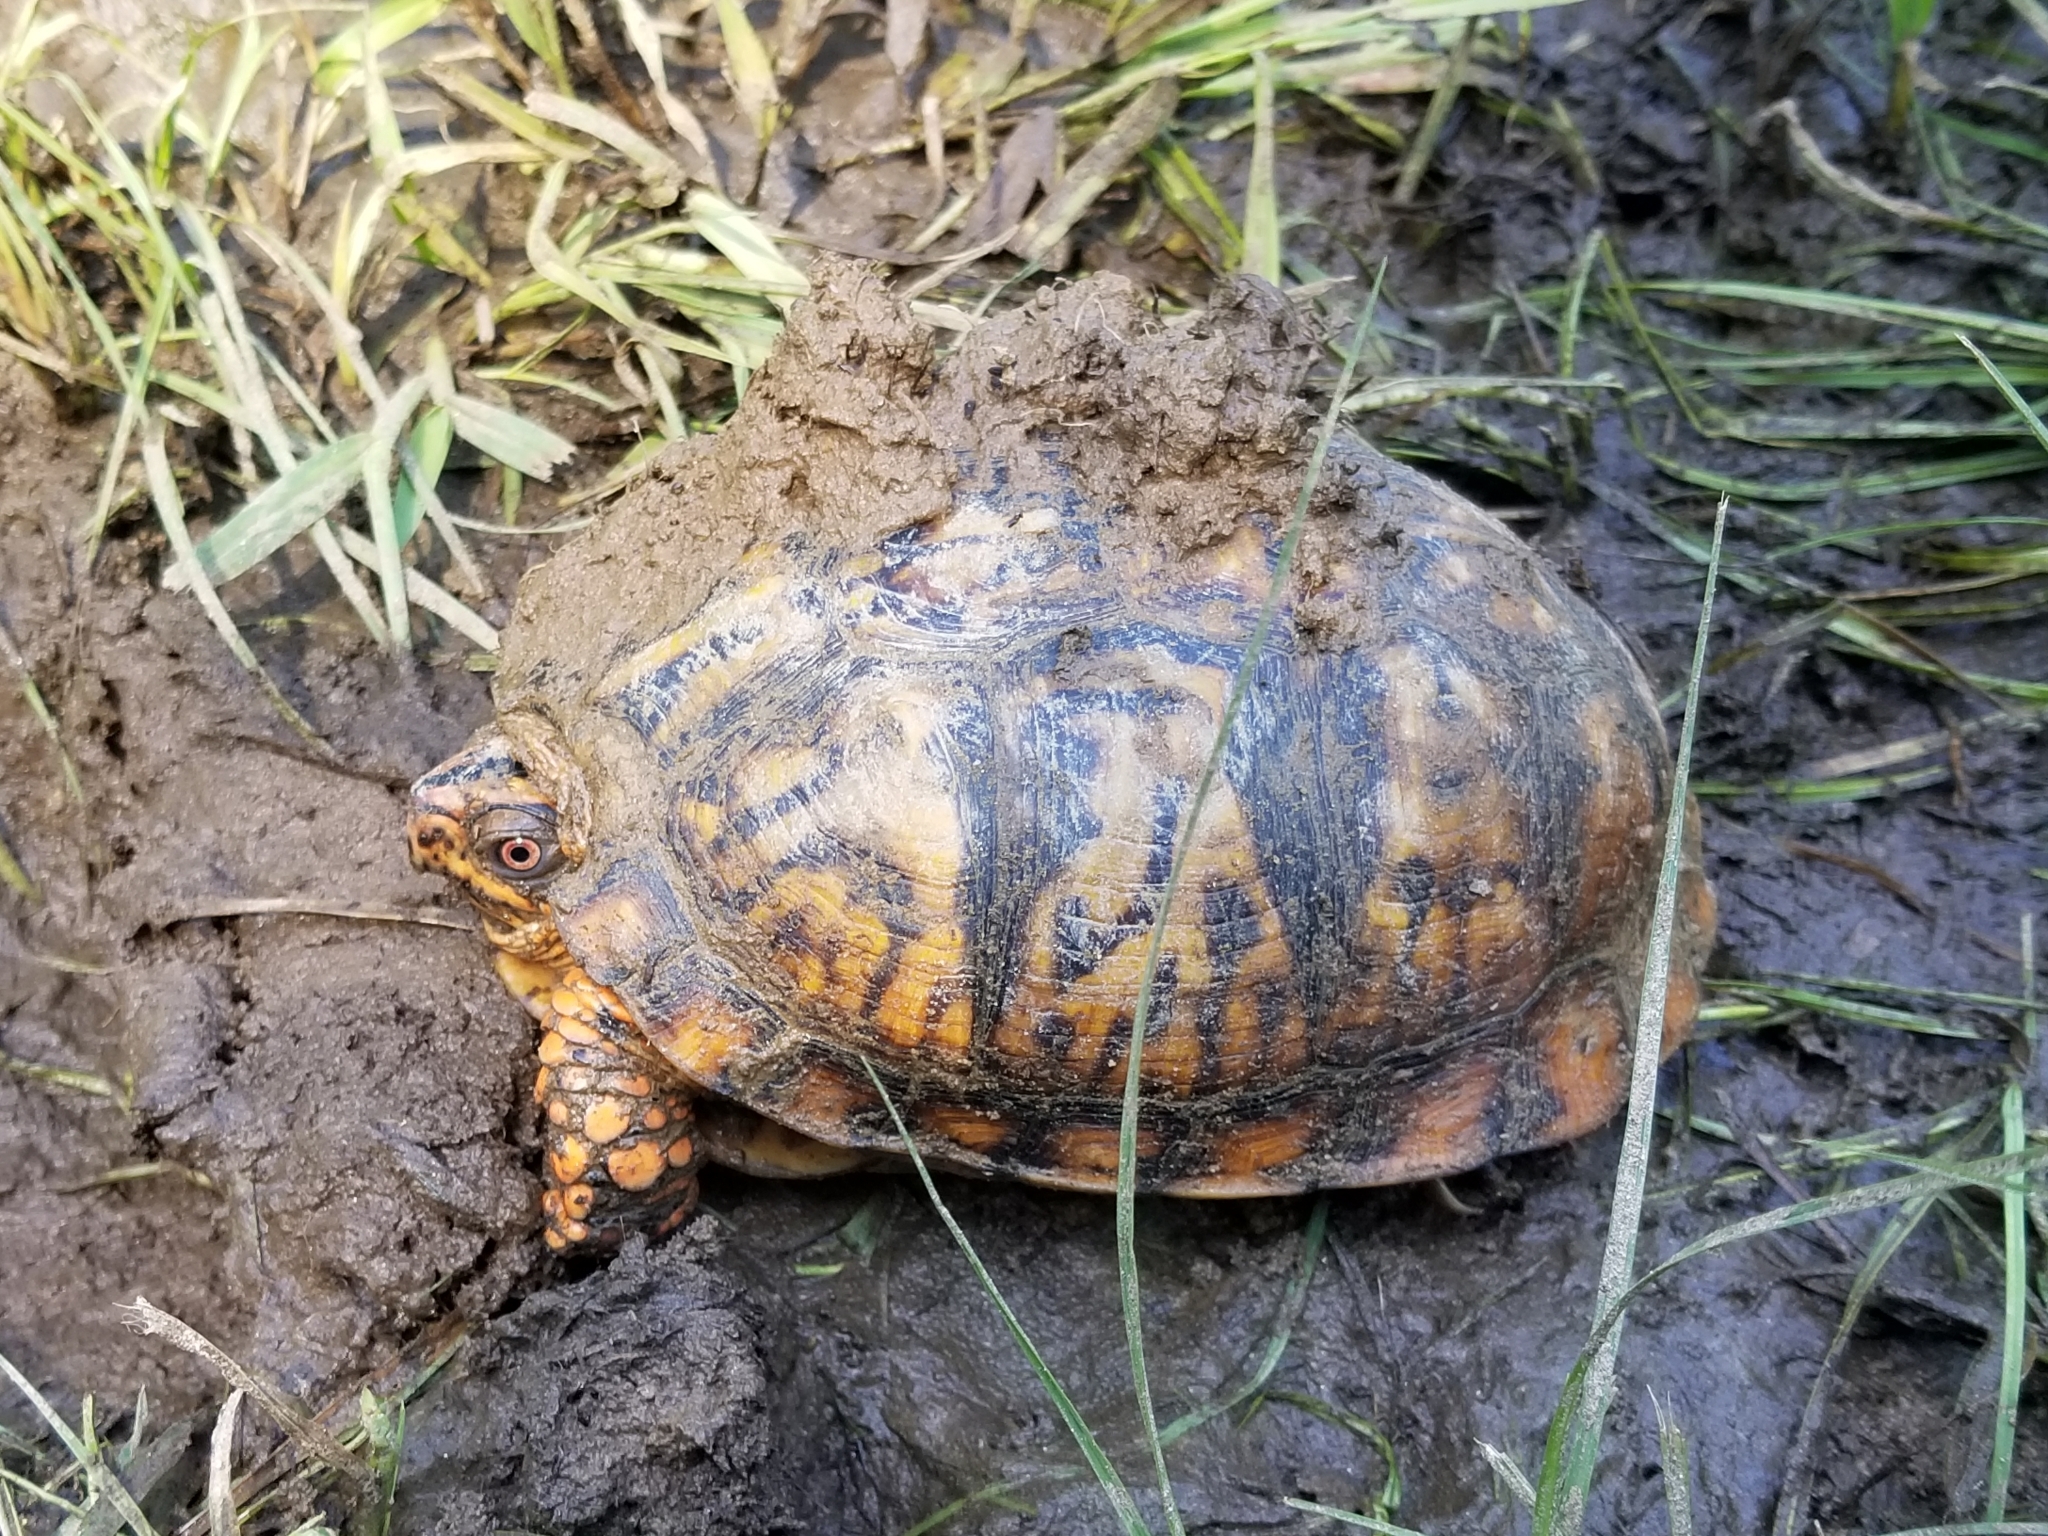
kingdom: Animalia
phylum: Chordata
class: Testudines
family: Emydidae
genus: Terrapene
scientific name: Terrapene carolina
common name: Common box turtle
